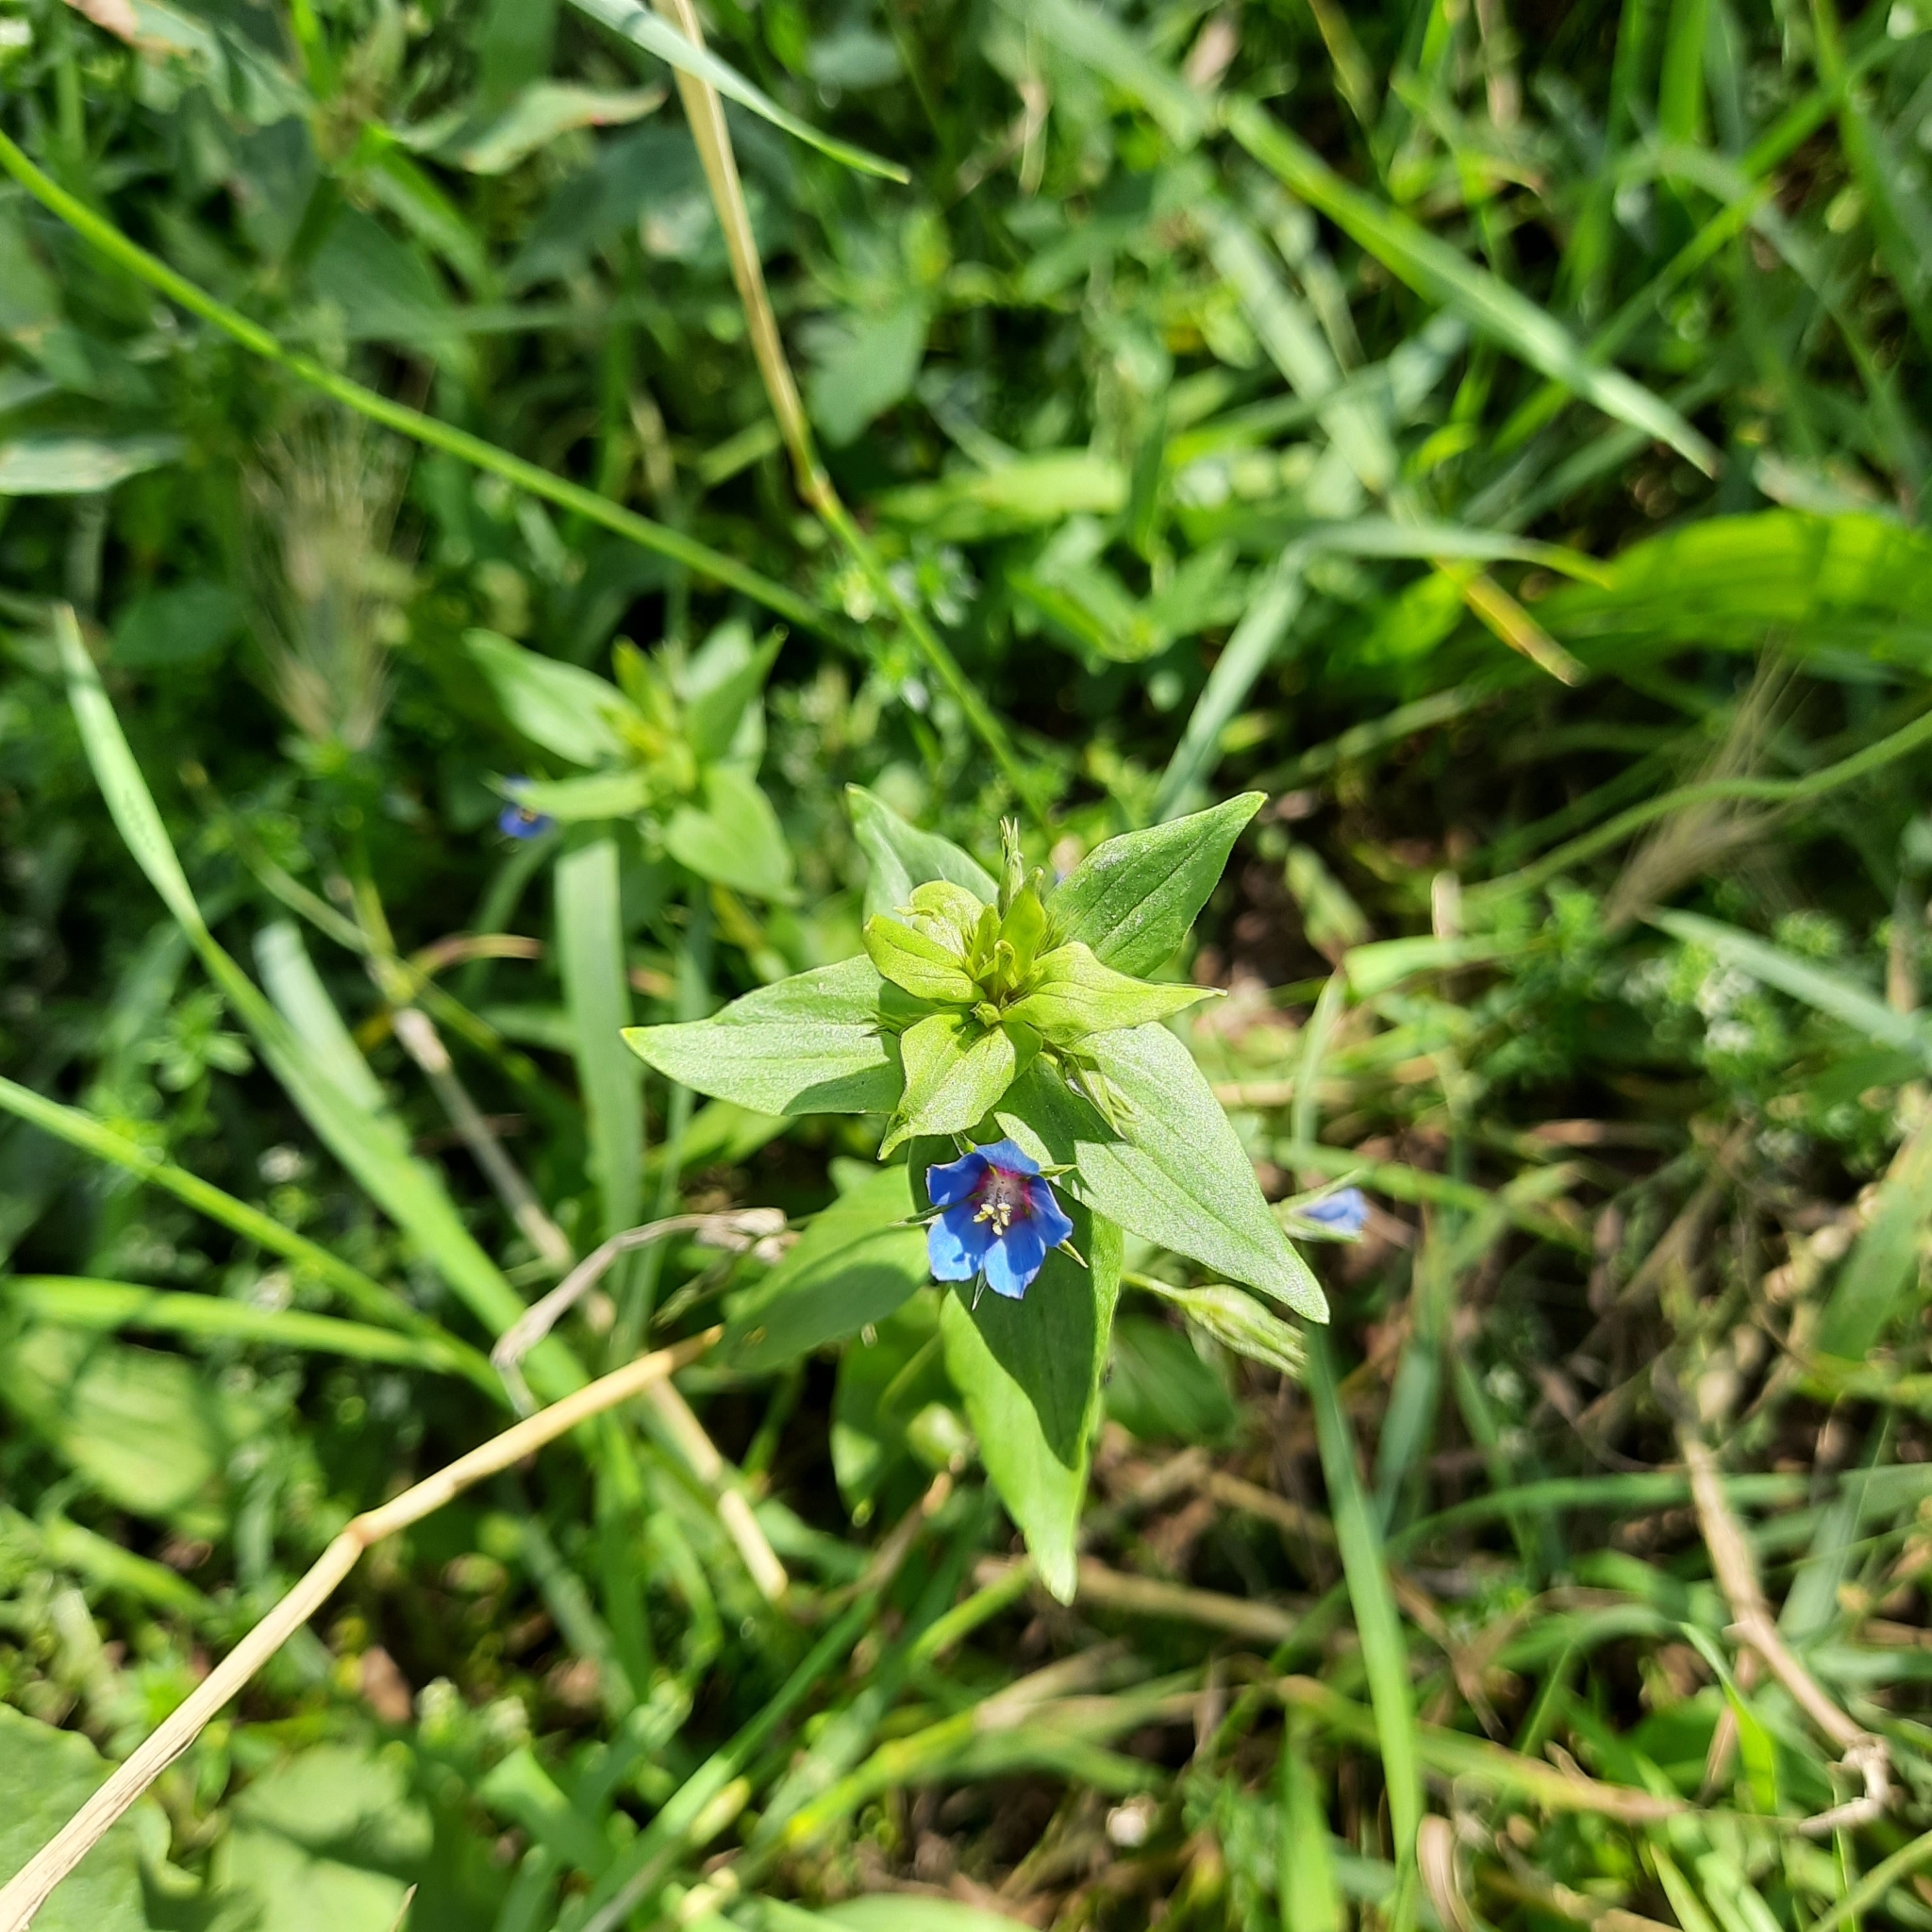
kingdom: Plantae
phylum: Tracheophyta
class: Magnoliopsida
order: Ericales
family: Primulaceae
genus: Lysimachia
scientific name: Lysimachia foemina
